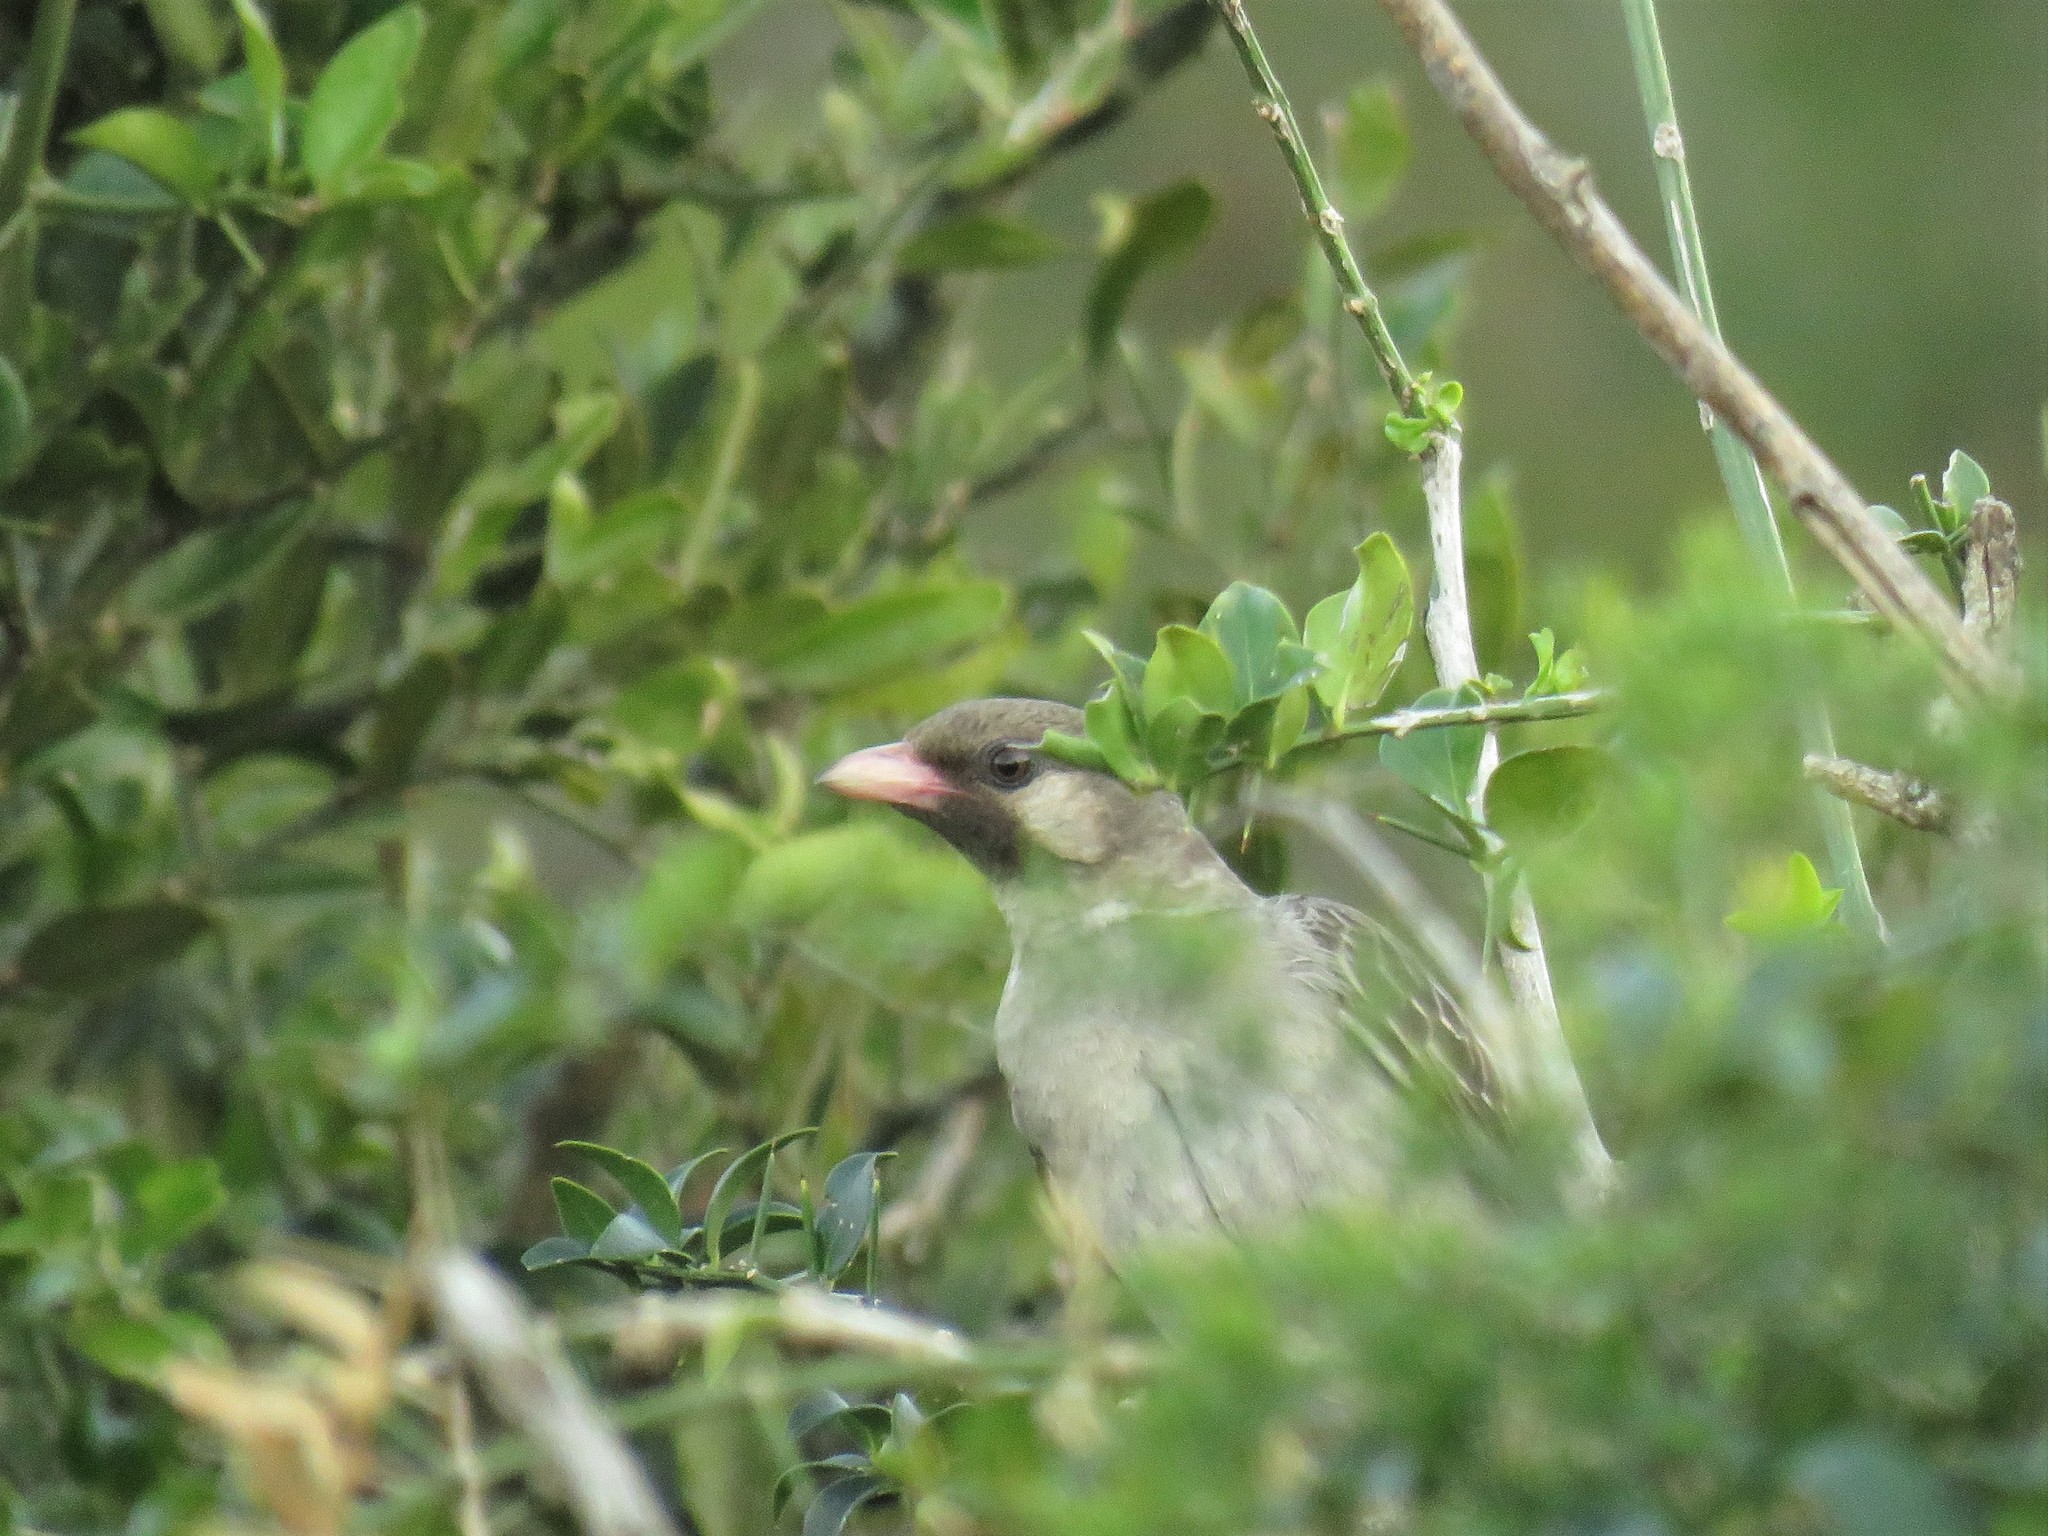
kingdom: Animalia
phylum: Chordata
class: Aves
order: Piciformes
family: Indicatoridae
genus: Indicator
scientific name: Indicator indicator
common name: Greater honeyguide
